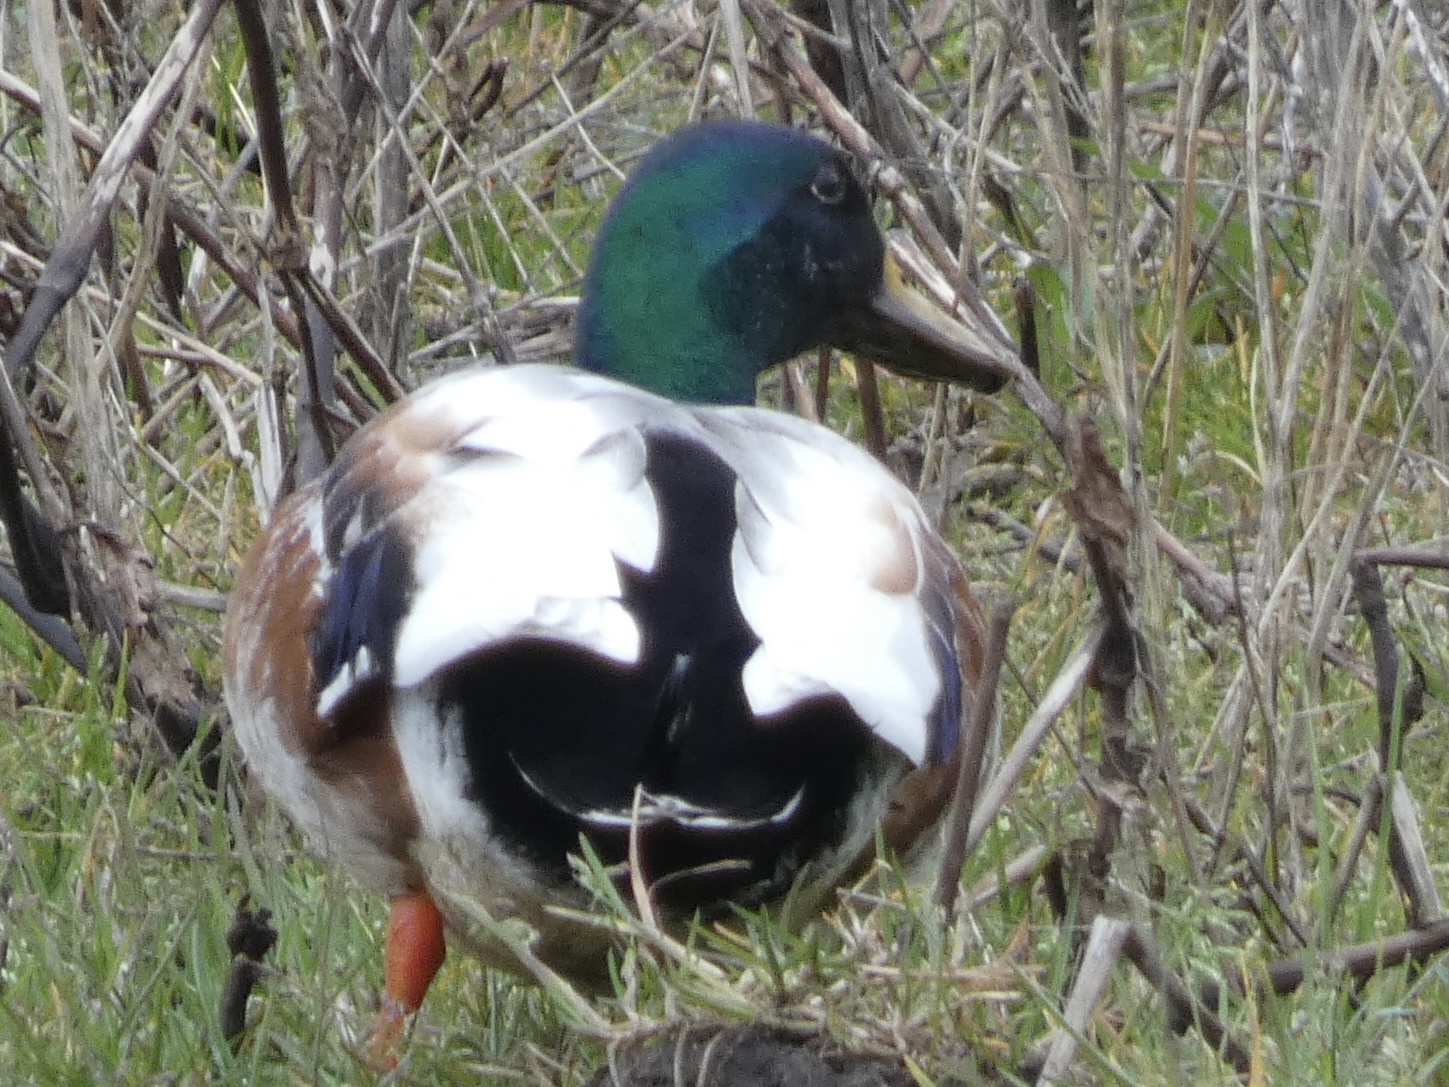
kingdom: Animalia
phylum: Chordata
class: Aves
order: Anseriformes
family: Anatidae
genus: Anas
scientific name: Anas platyrhynchos
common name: Mallard
